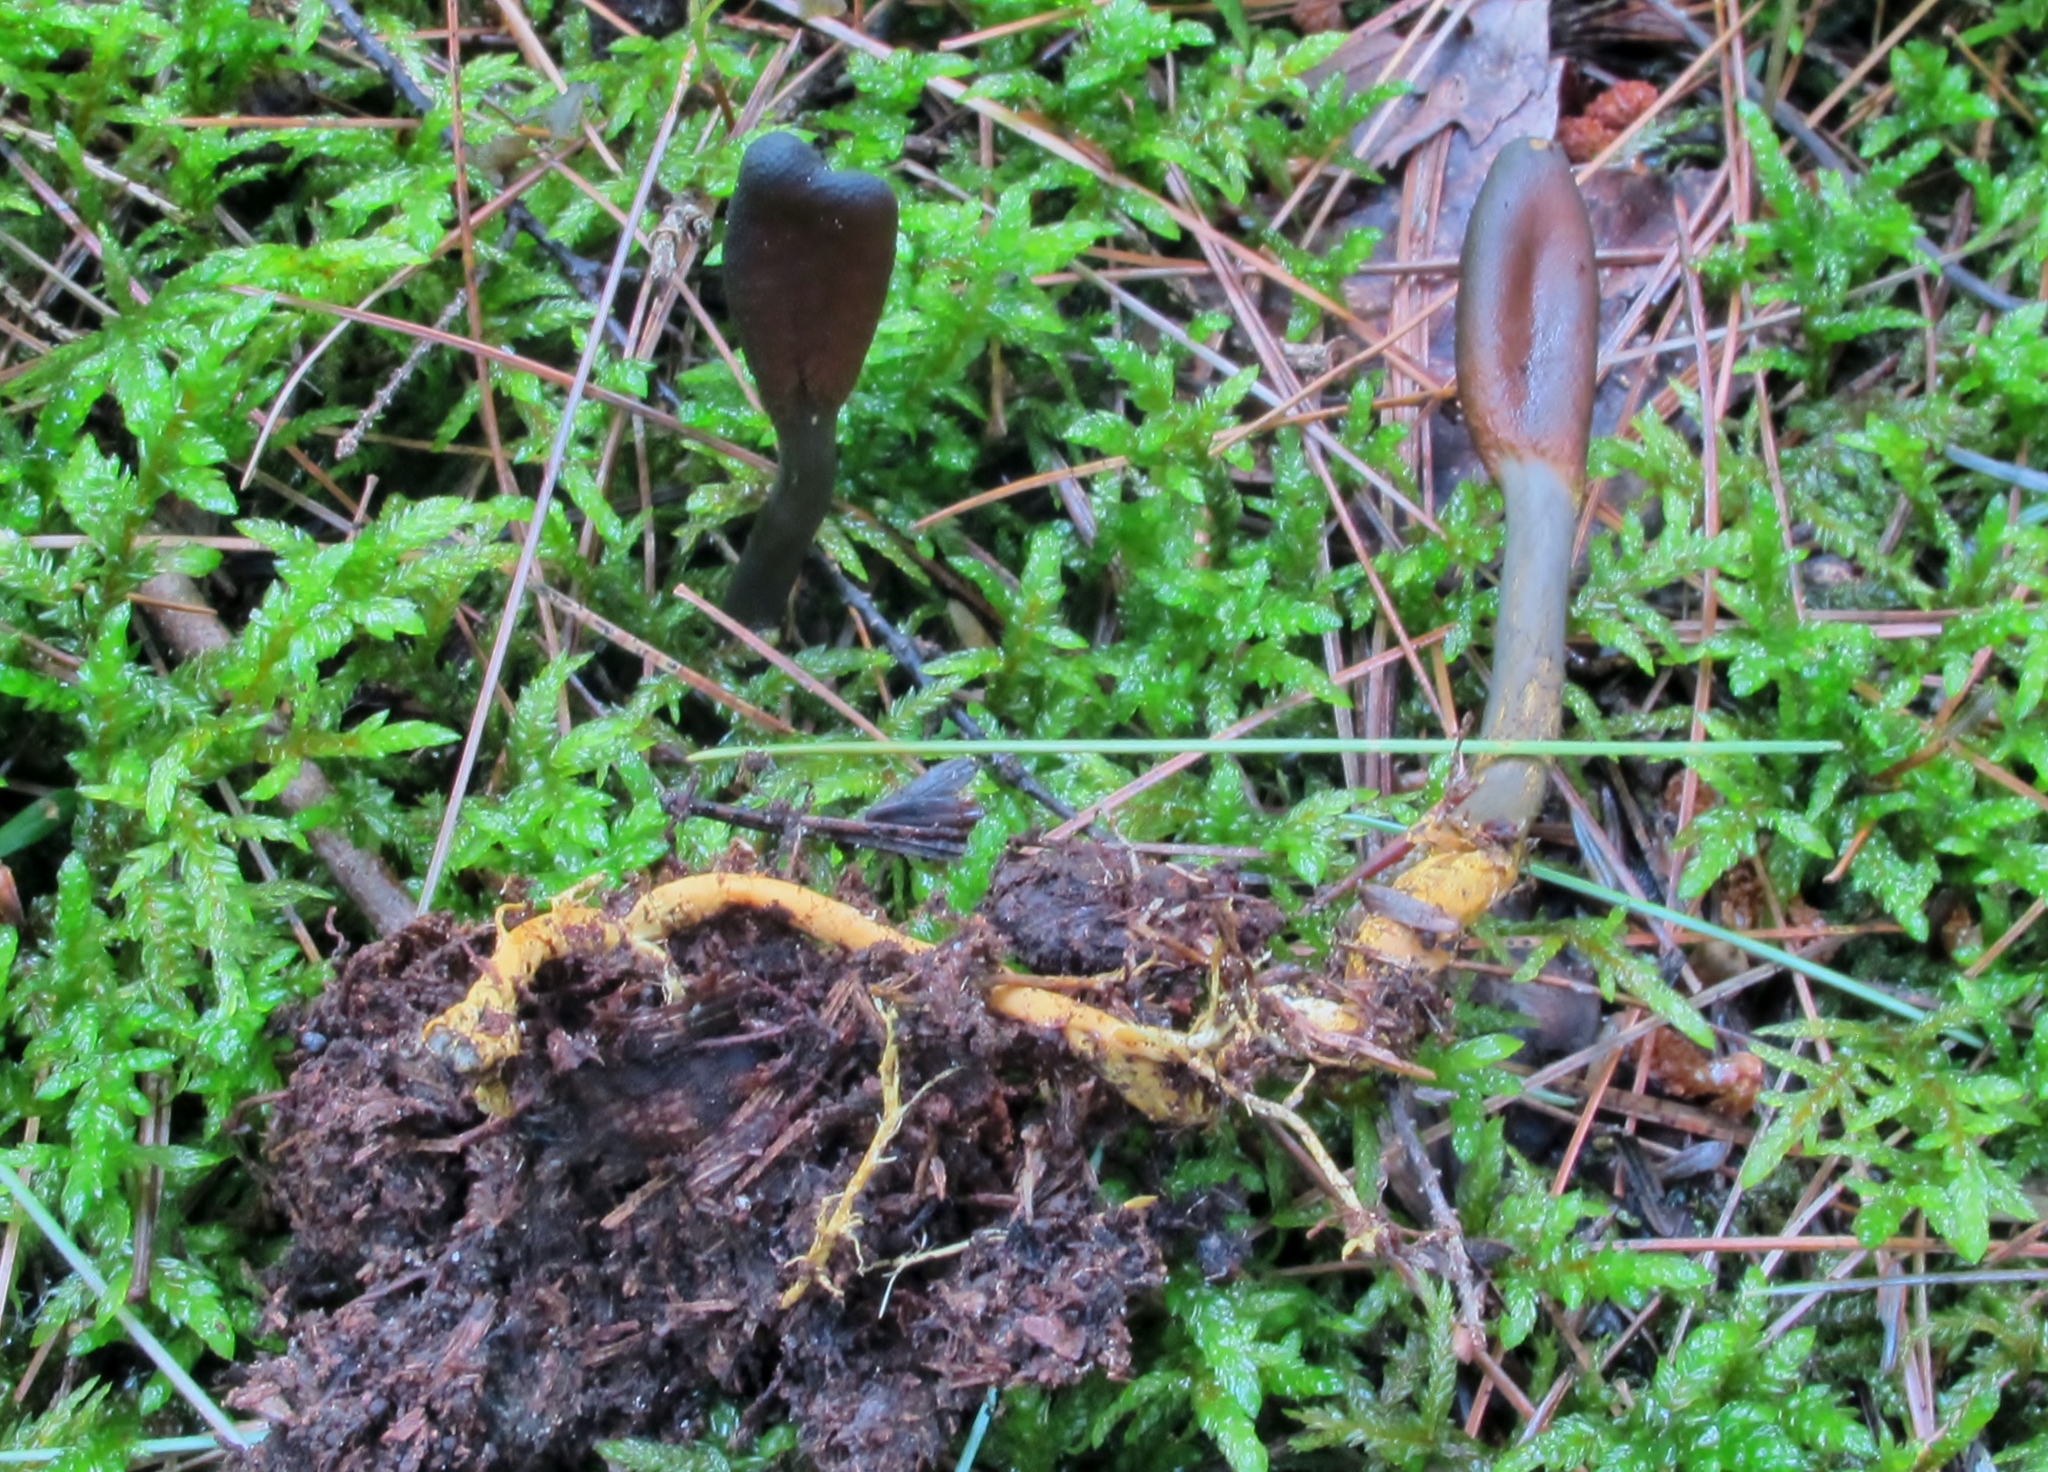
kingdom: Fungi
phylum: Ascomycota
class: Sordariomycetes
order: Hypocreales
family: Ophiocordycipitaceae
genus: Tolypocladium
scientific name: Tolypocladium ophioglossoides
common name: Snaketongue truffleclub
